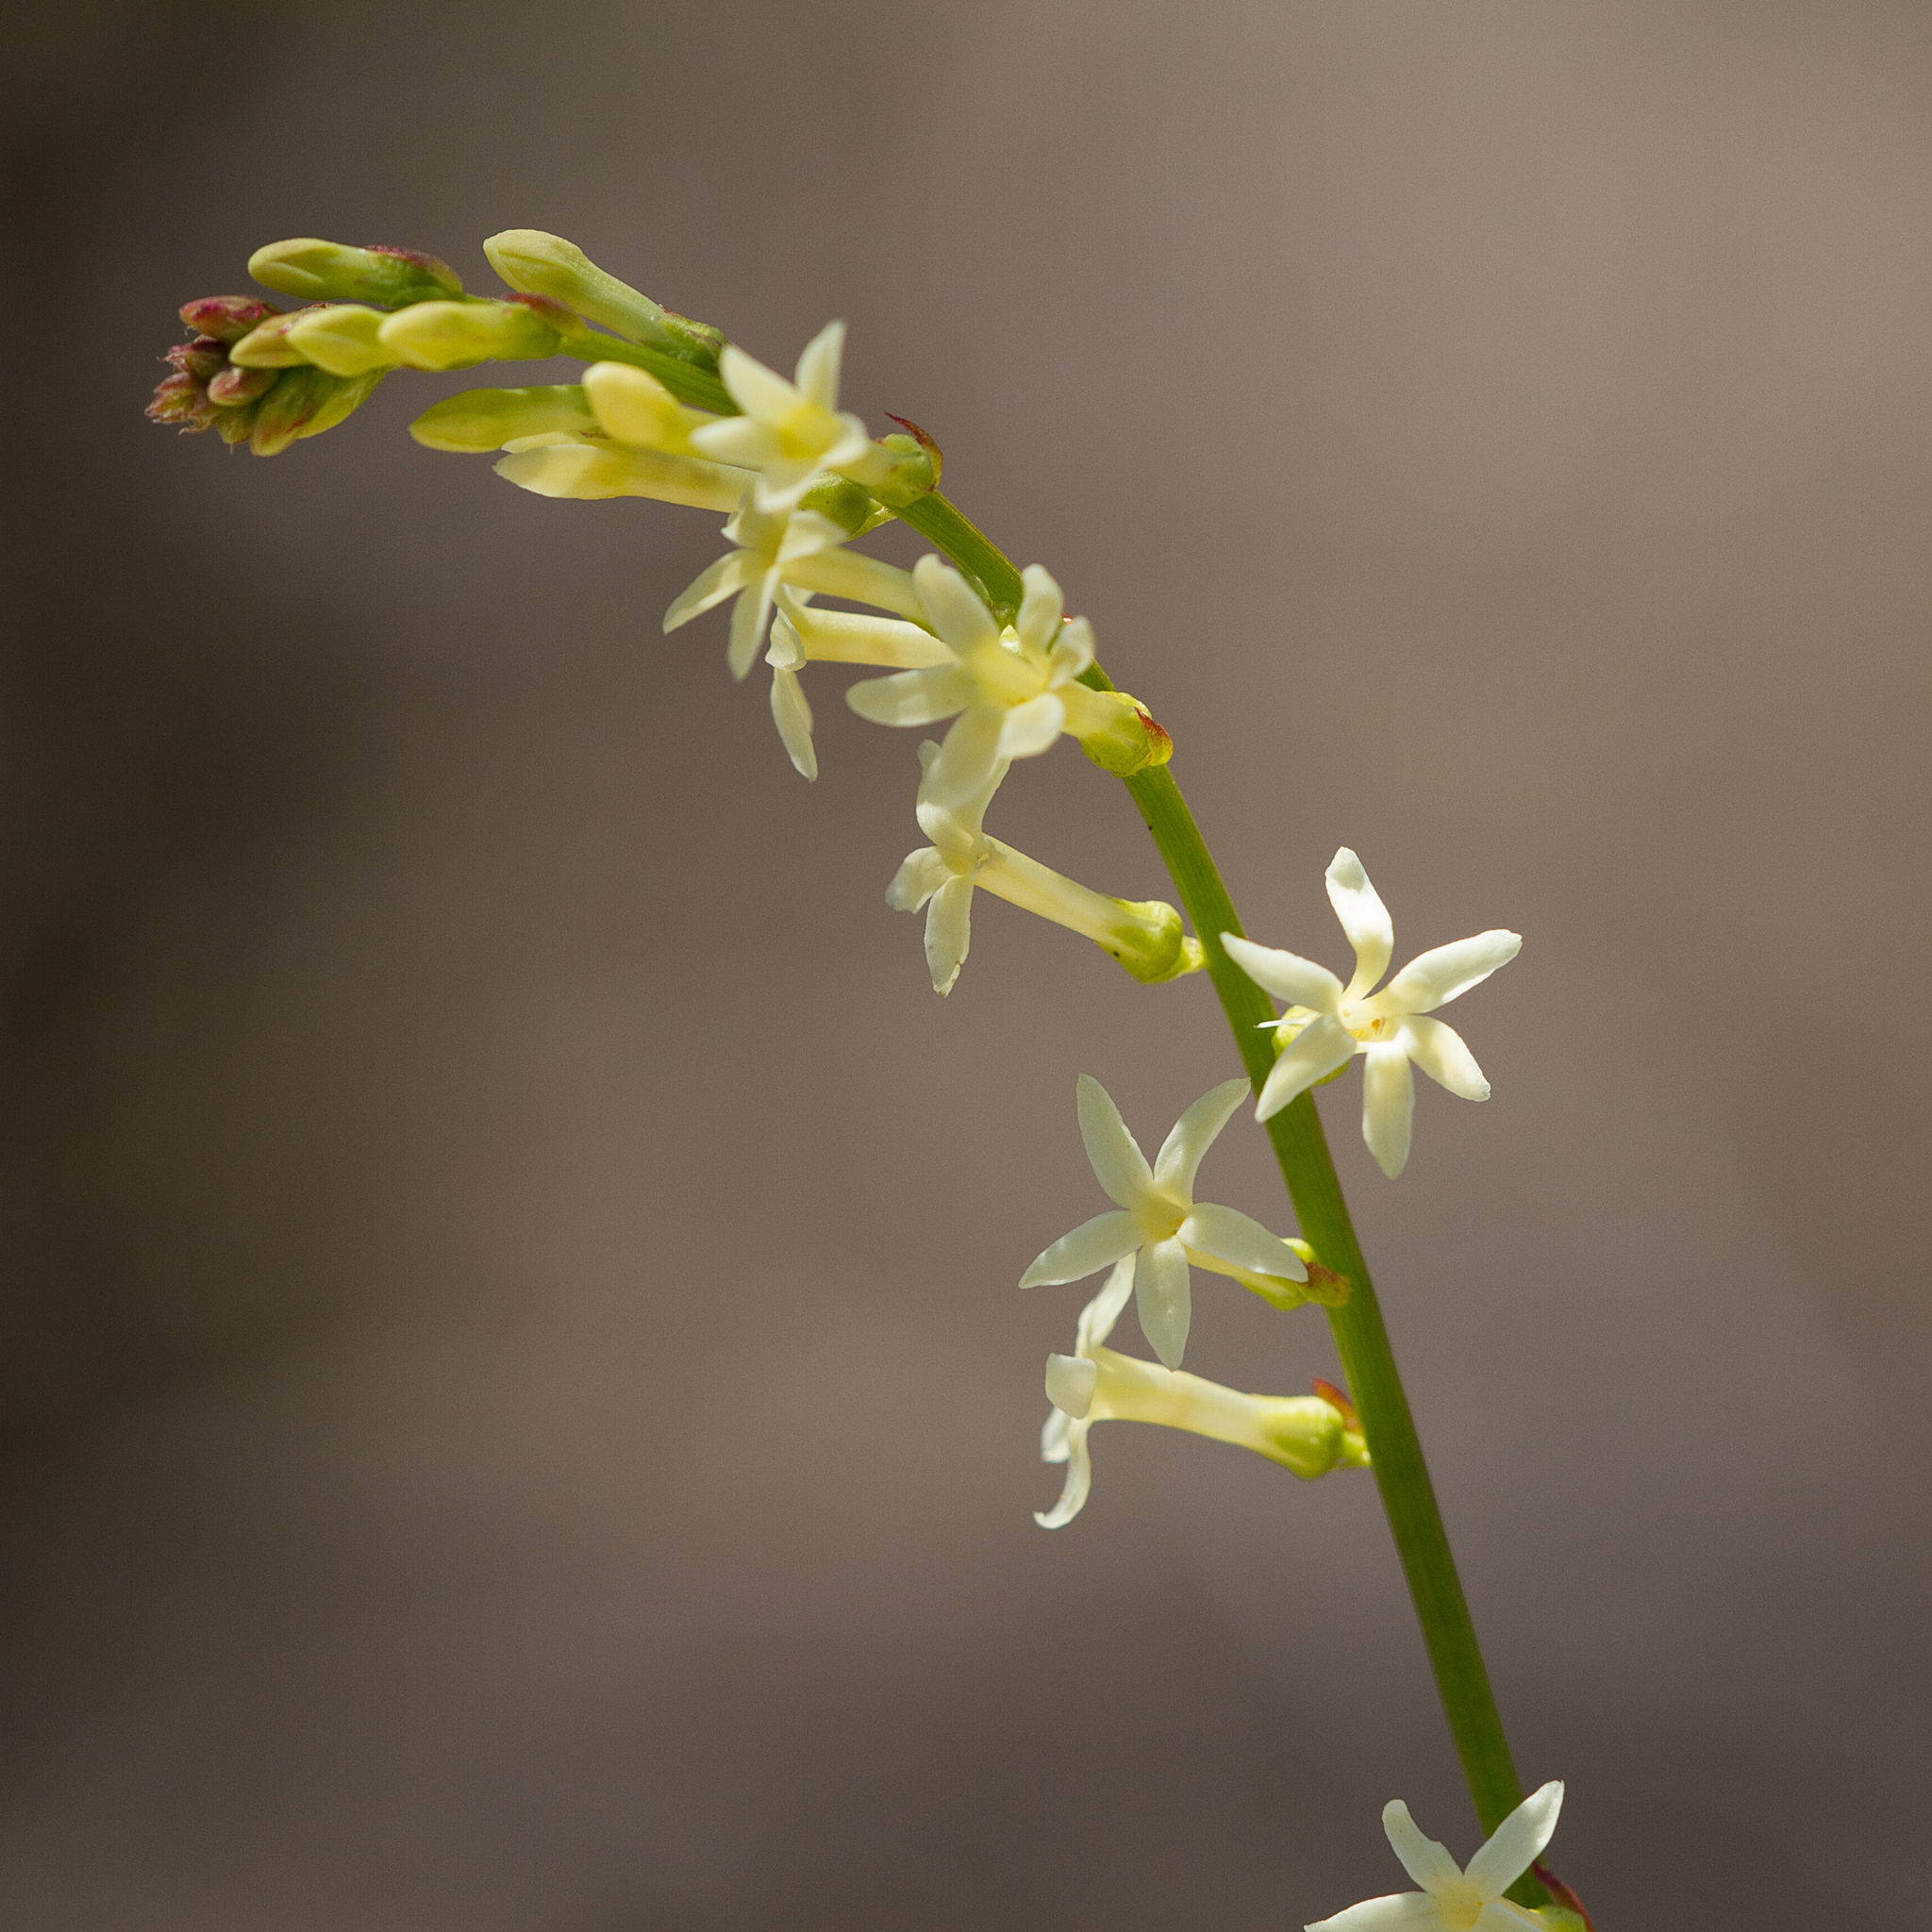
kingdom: Plantae
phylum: Tracheophyta
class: Magnoliopsida
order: Celastrales
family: Celastraceae
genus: Stackhousia
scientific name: Stackhousia monogyna
